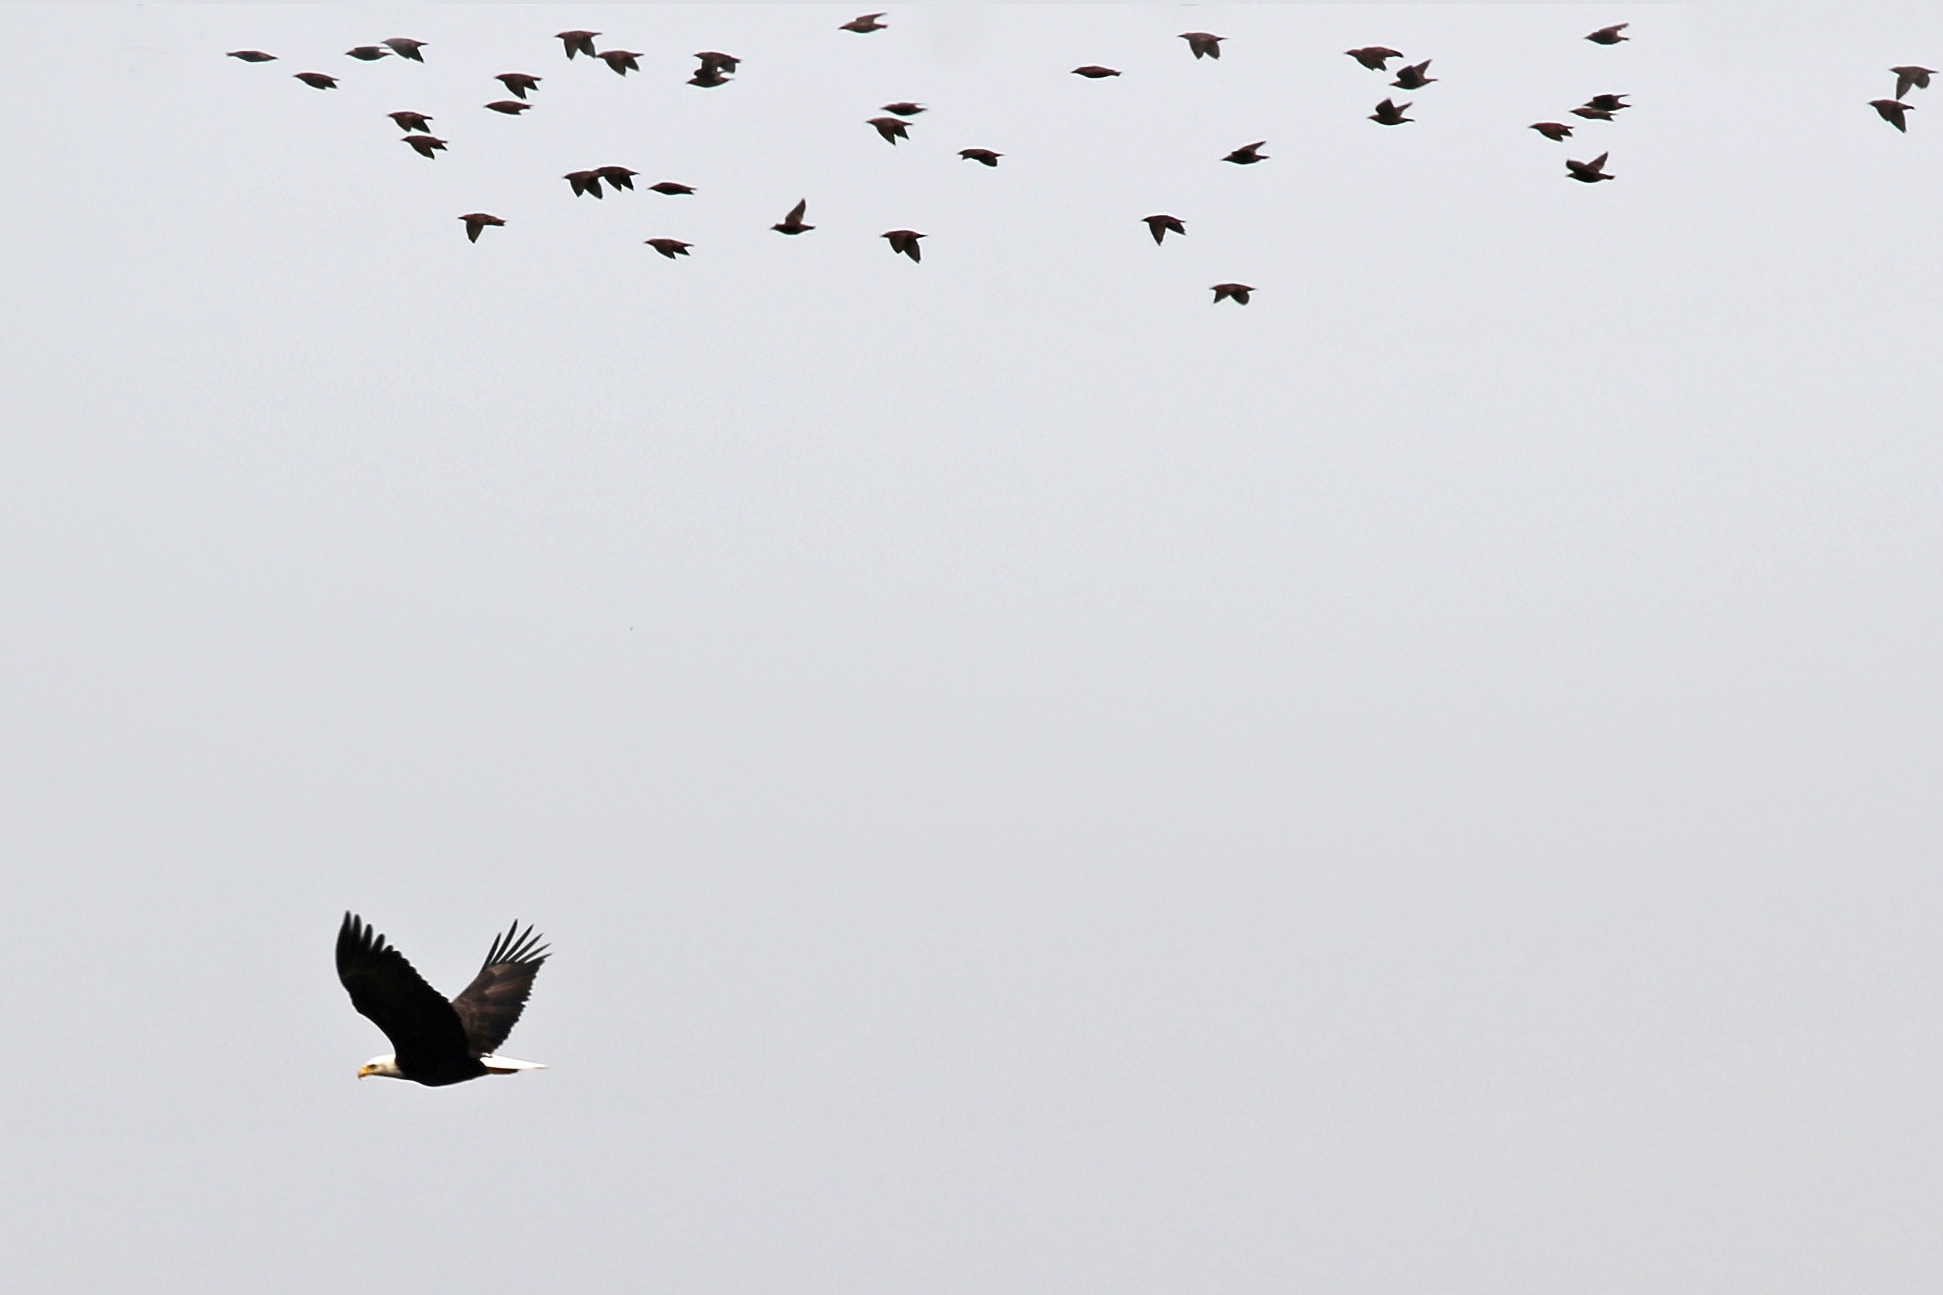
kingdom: Animalia
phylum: Chordata
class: Aves
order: Accipitriformes
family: Accipitridae
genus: Haliaeetus
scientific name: Haliaeetus leucocephalus
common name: Bald eagle
